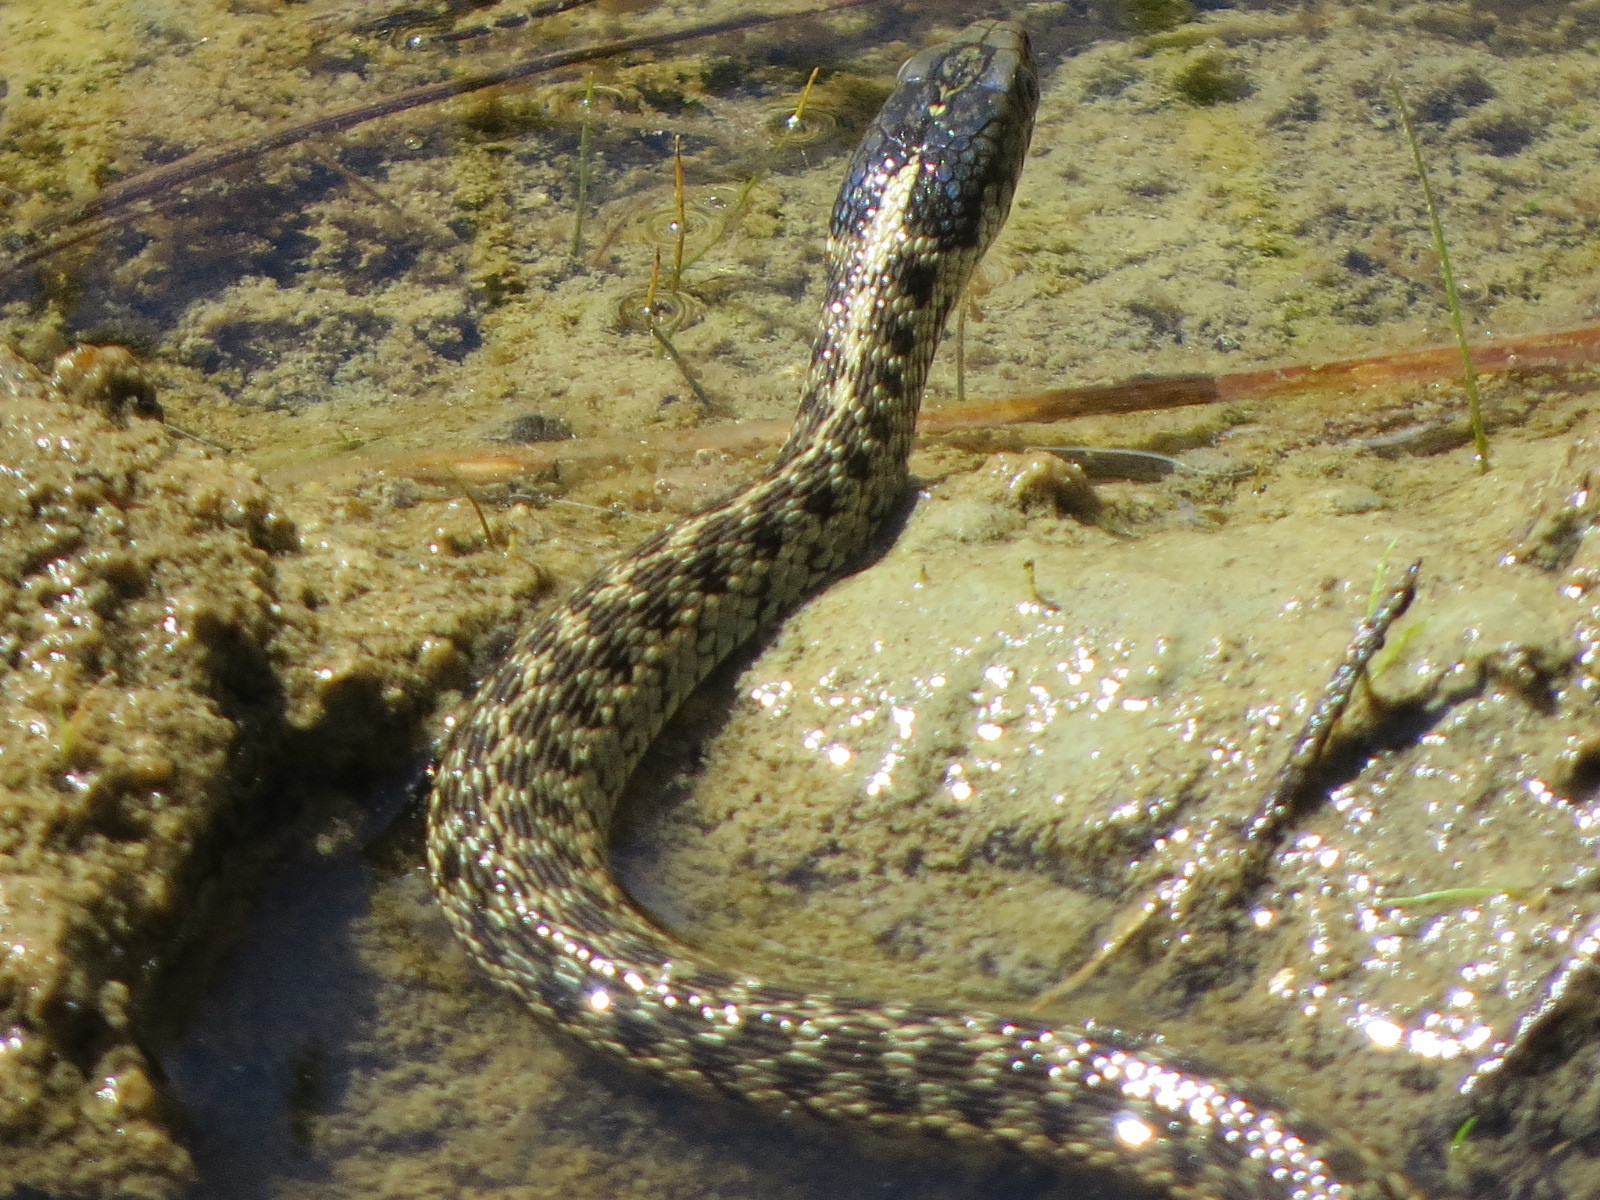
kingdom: Animalia
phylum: Chordata
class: Squamata
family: Colubridae
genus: Thamnophis
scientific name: Thamnophis atratus
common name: Pacific coast aquatic garter snake
